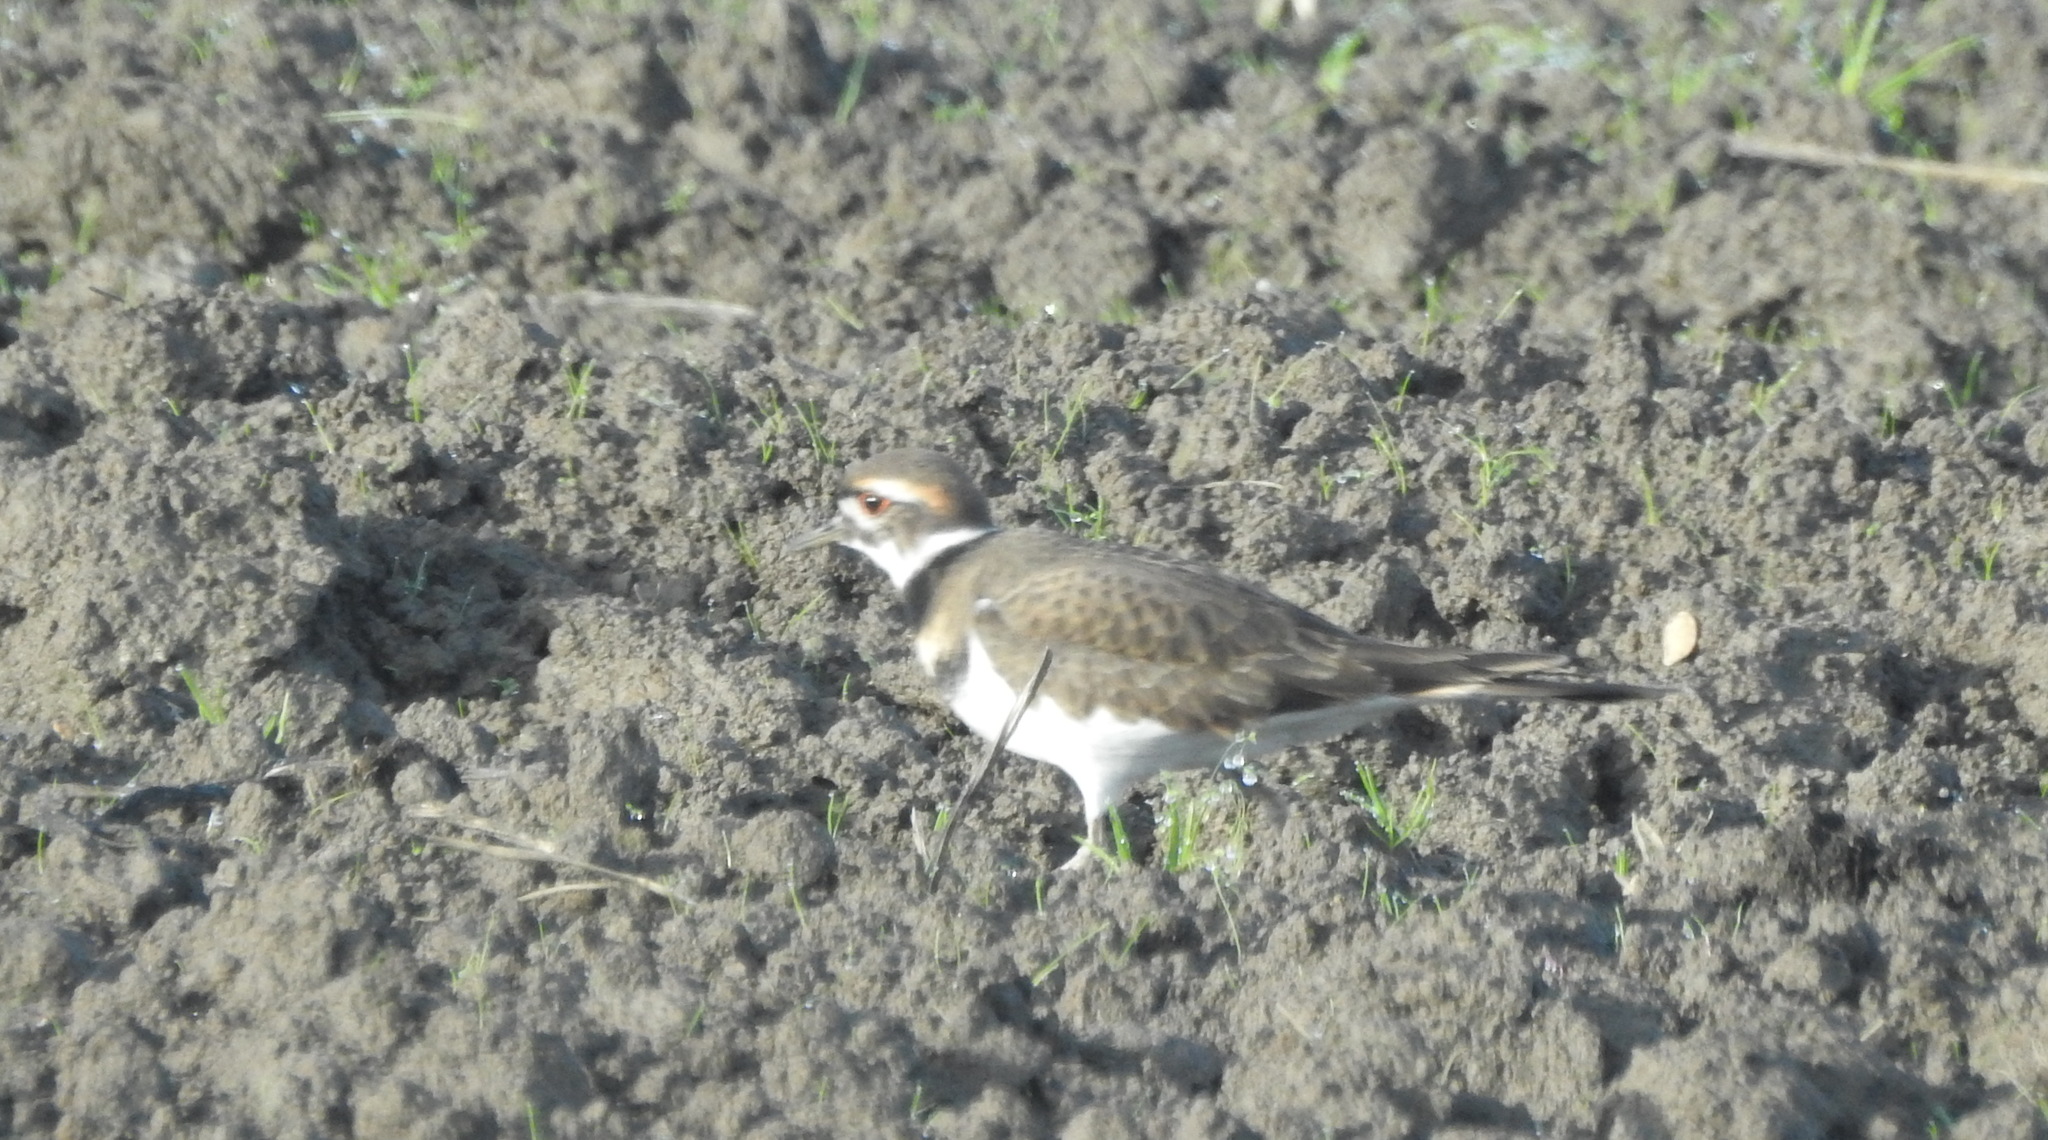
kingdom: Animalia
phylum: Chordata
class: Aves
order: Charadriiformes
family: Charadriidae
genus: Charadrius
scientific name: Charadrius vociferus
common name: Killdeer
